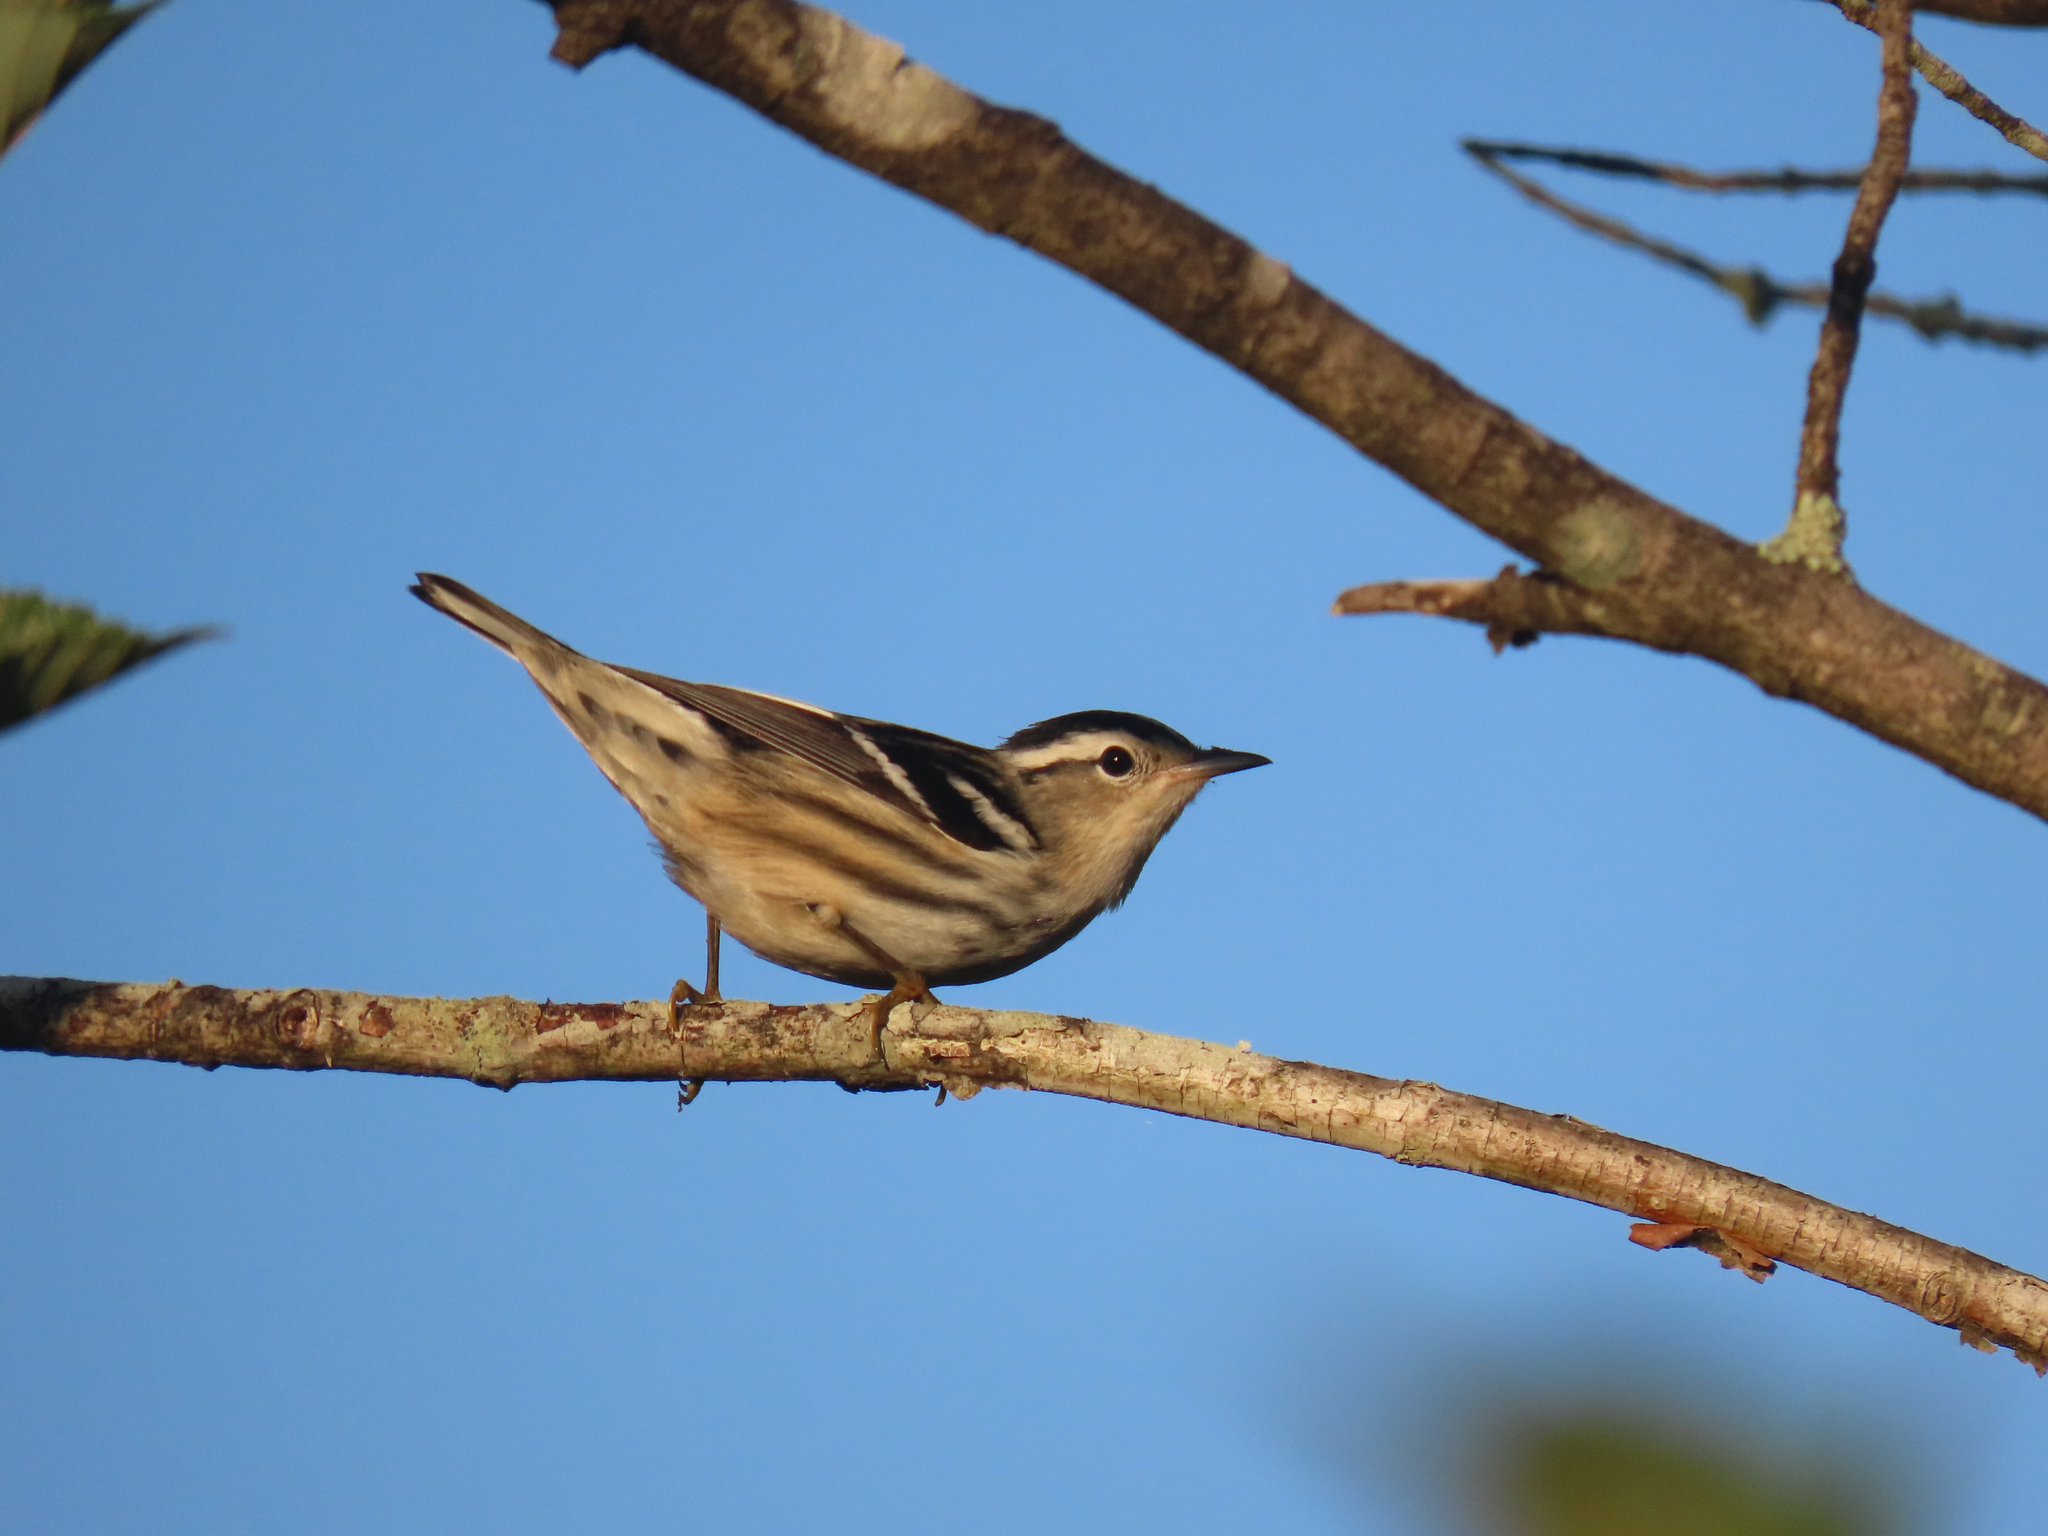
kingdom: Animalia
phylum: Chordata
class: Aves
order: Passeriformes
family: Parulidae
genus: Mniotilta
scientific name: Mniotilta varia
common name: Black-and-white warbler
